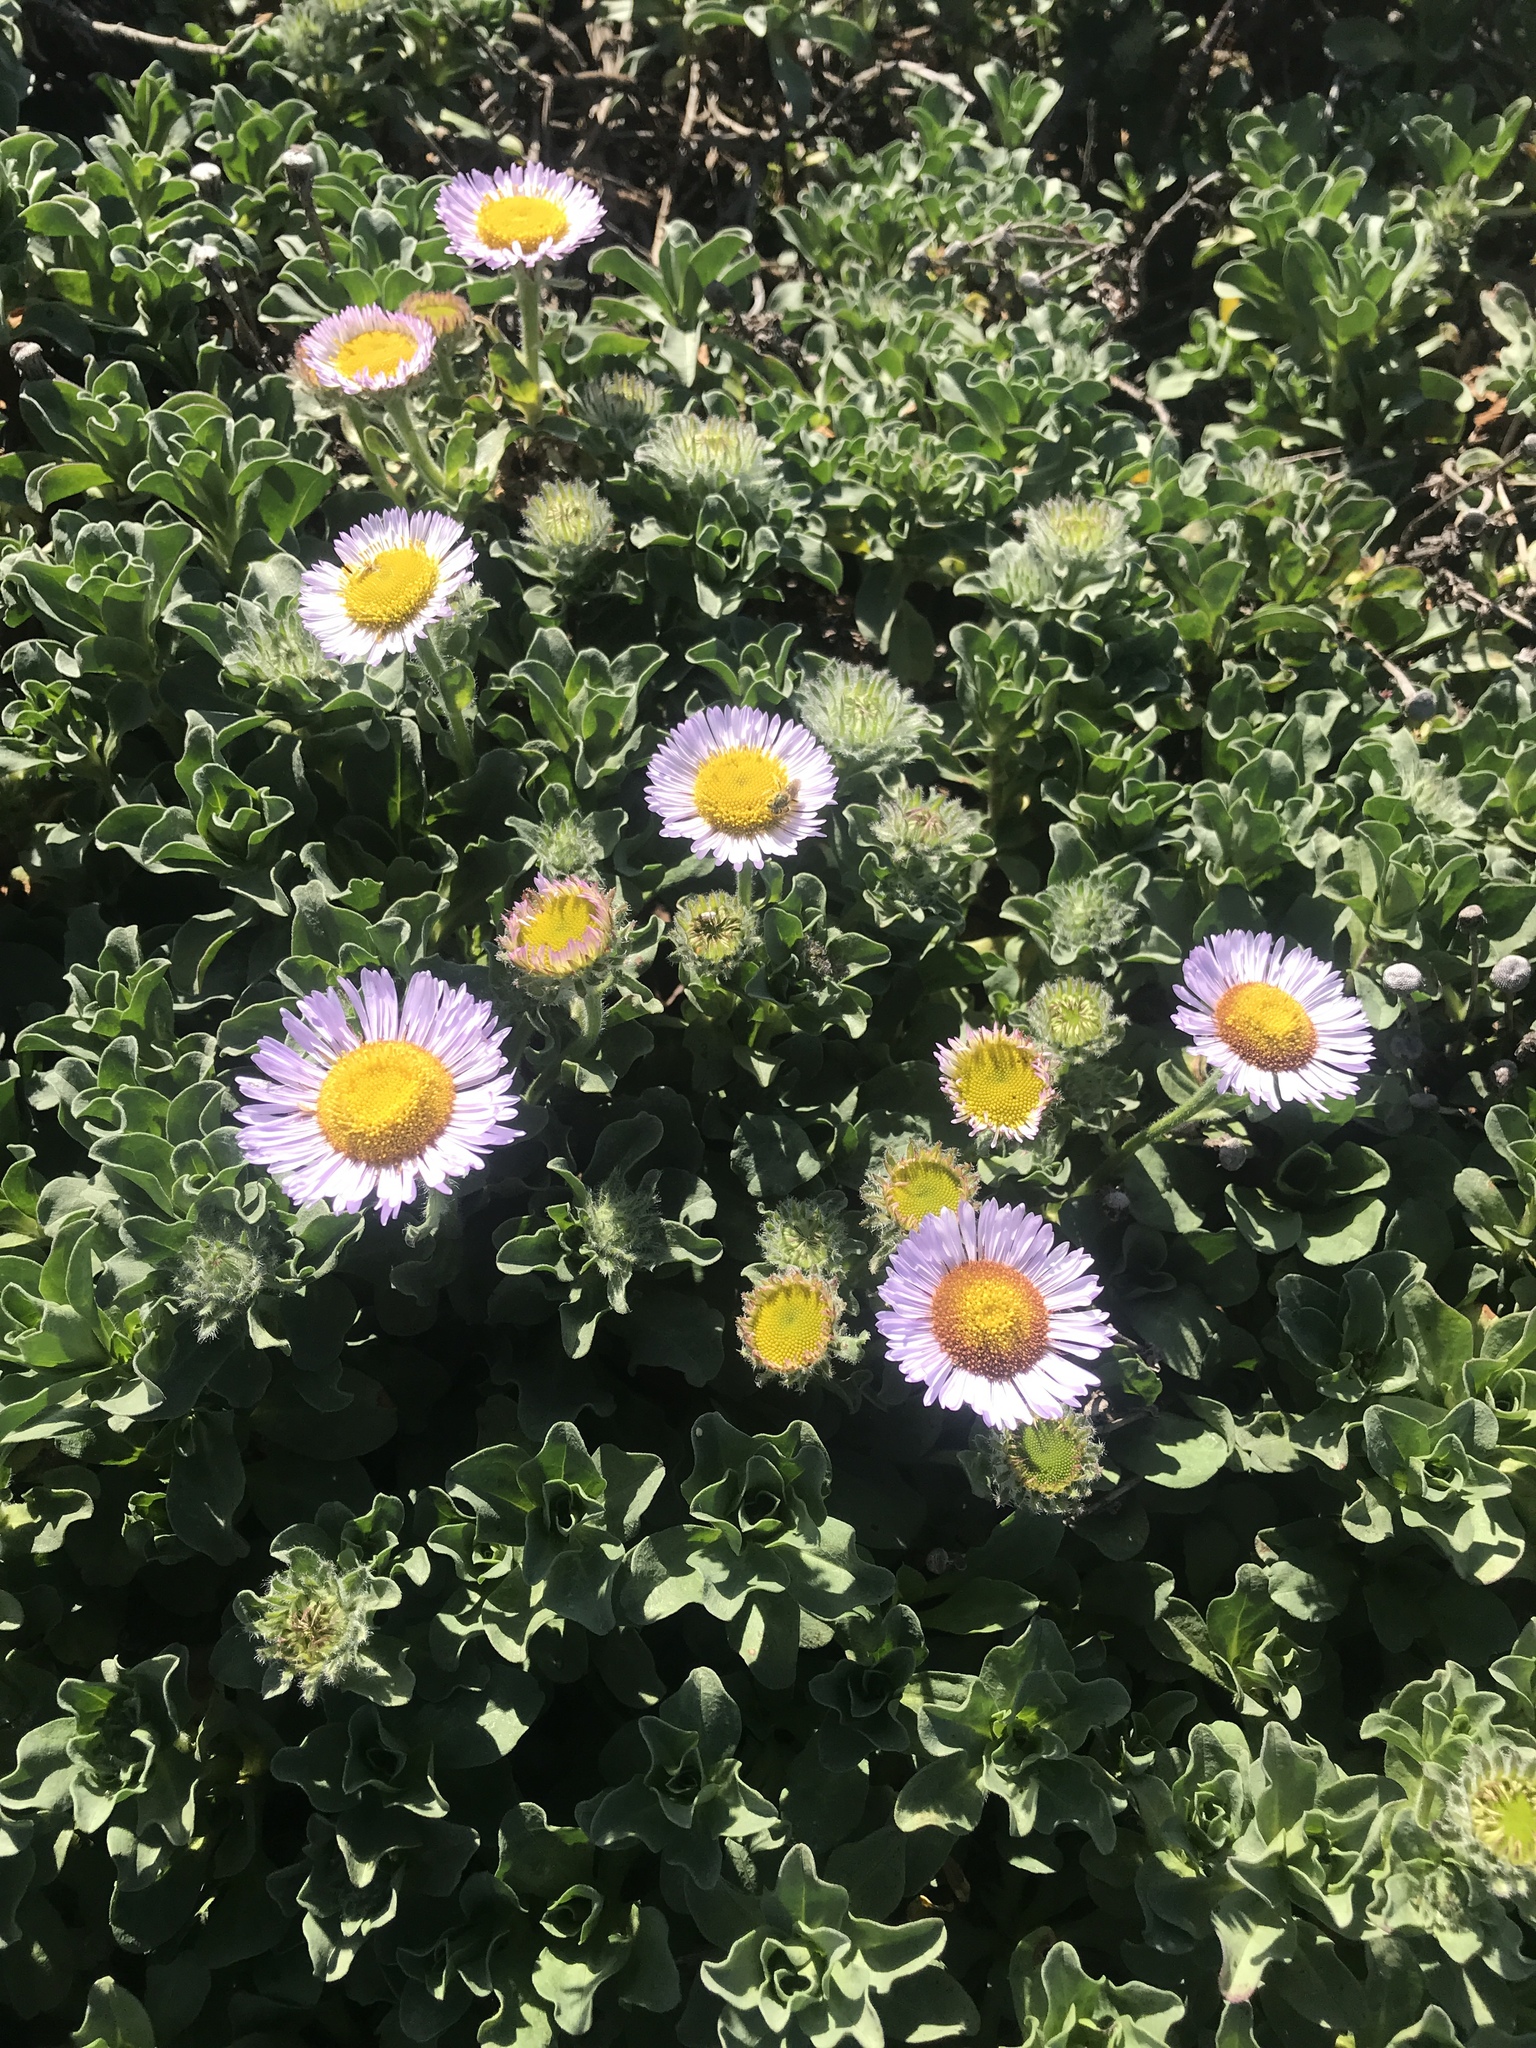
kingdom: Plantae
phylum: Tracheophyta
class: Magnoliopsida
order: Asterales
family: Asteraceae
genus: Erigeron
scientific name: Erigeron glaucus
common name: Seaside daisy
